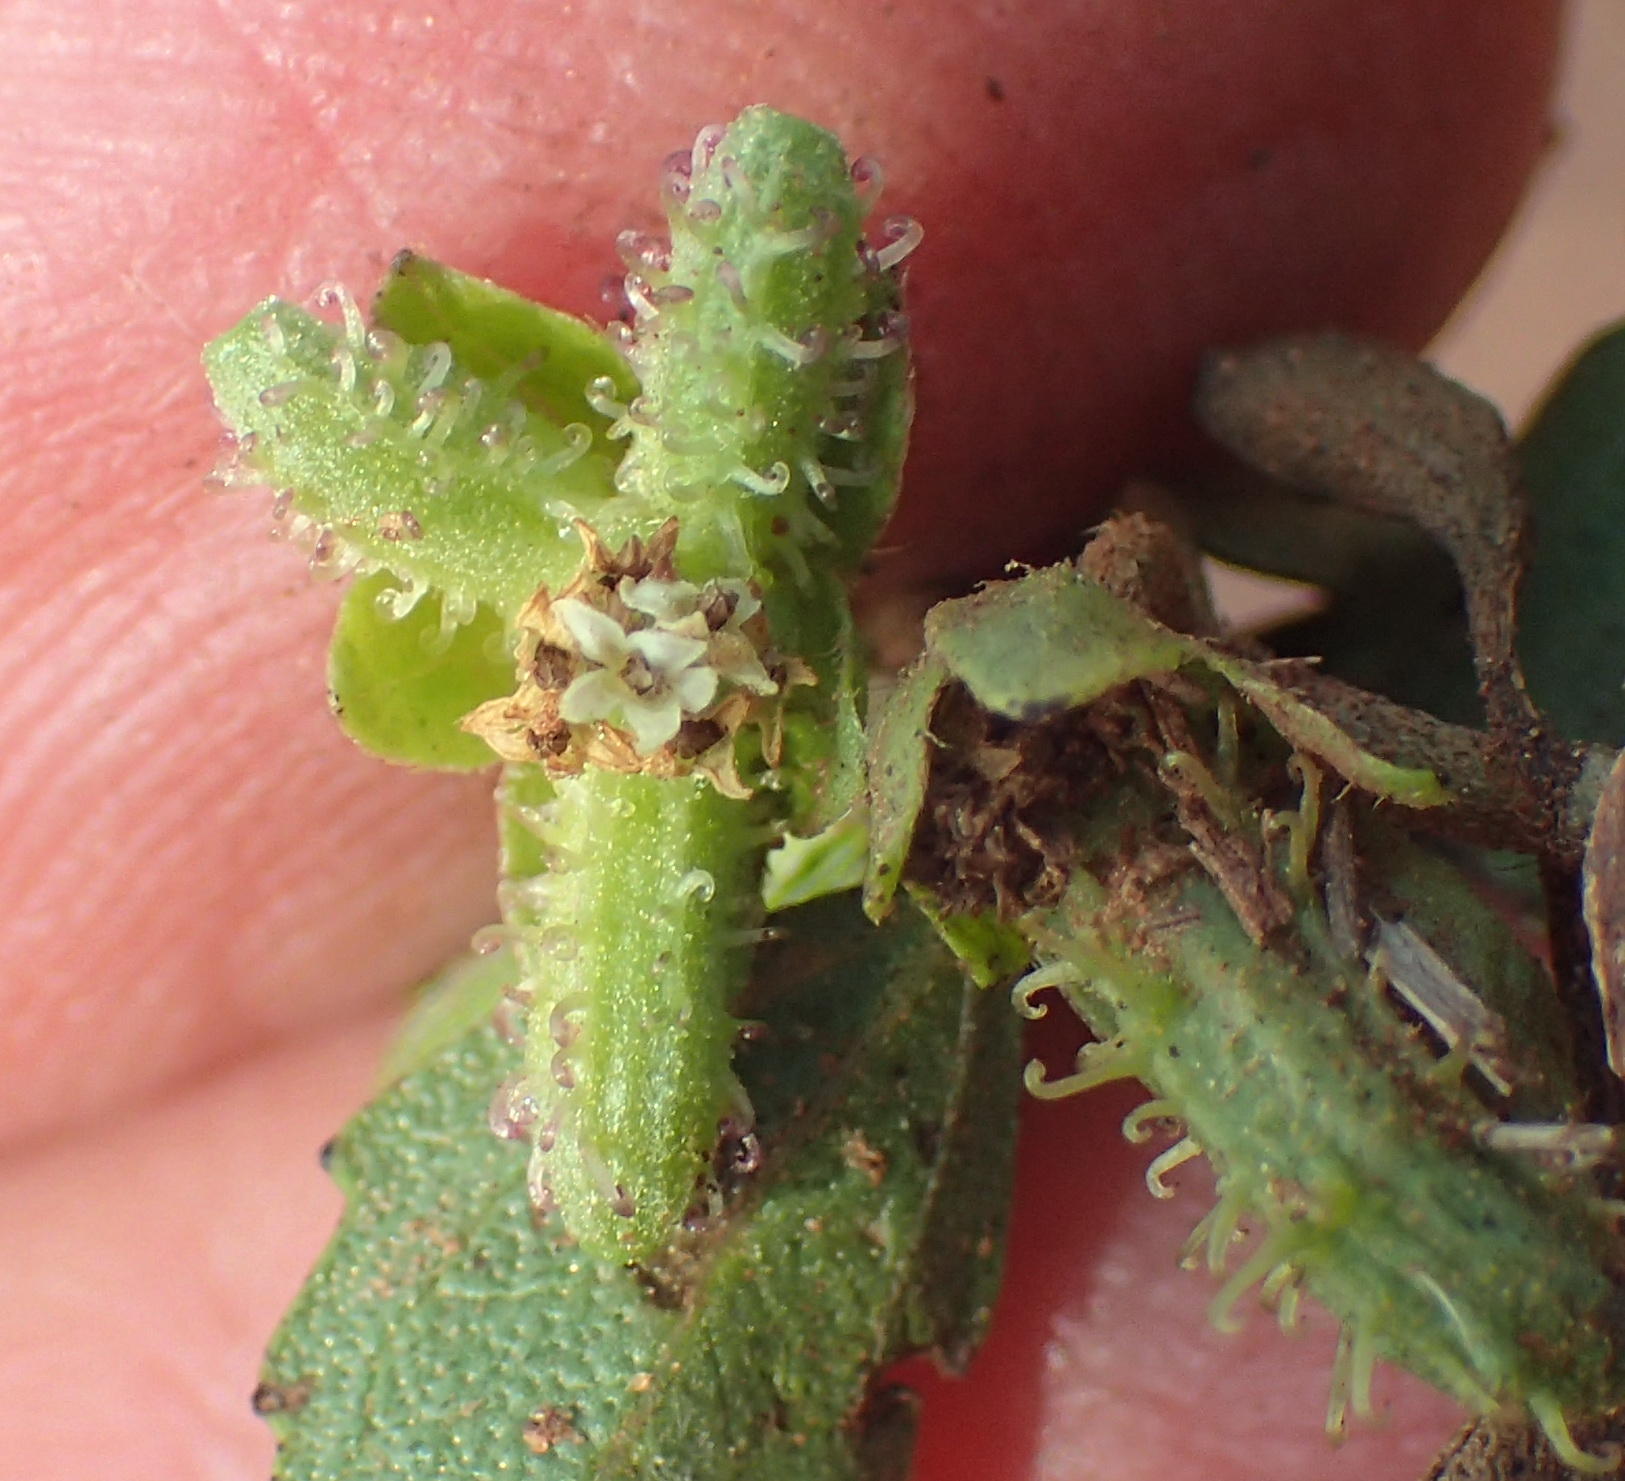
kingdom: Plantae
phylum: Tracheophyta
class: Magnoliopsida
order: Asterales
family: Asteraceae
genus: Acanthospermum
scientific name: Acanthospermum australe
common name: Paraguayan starbur
